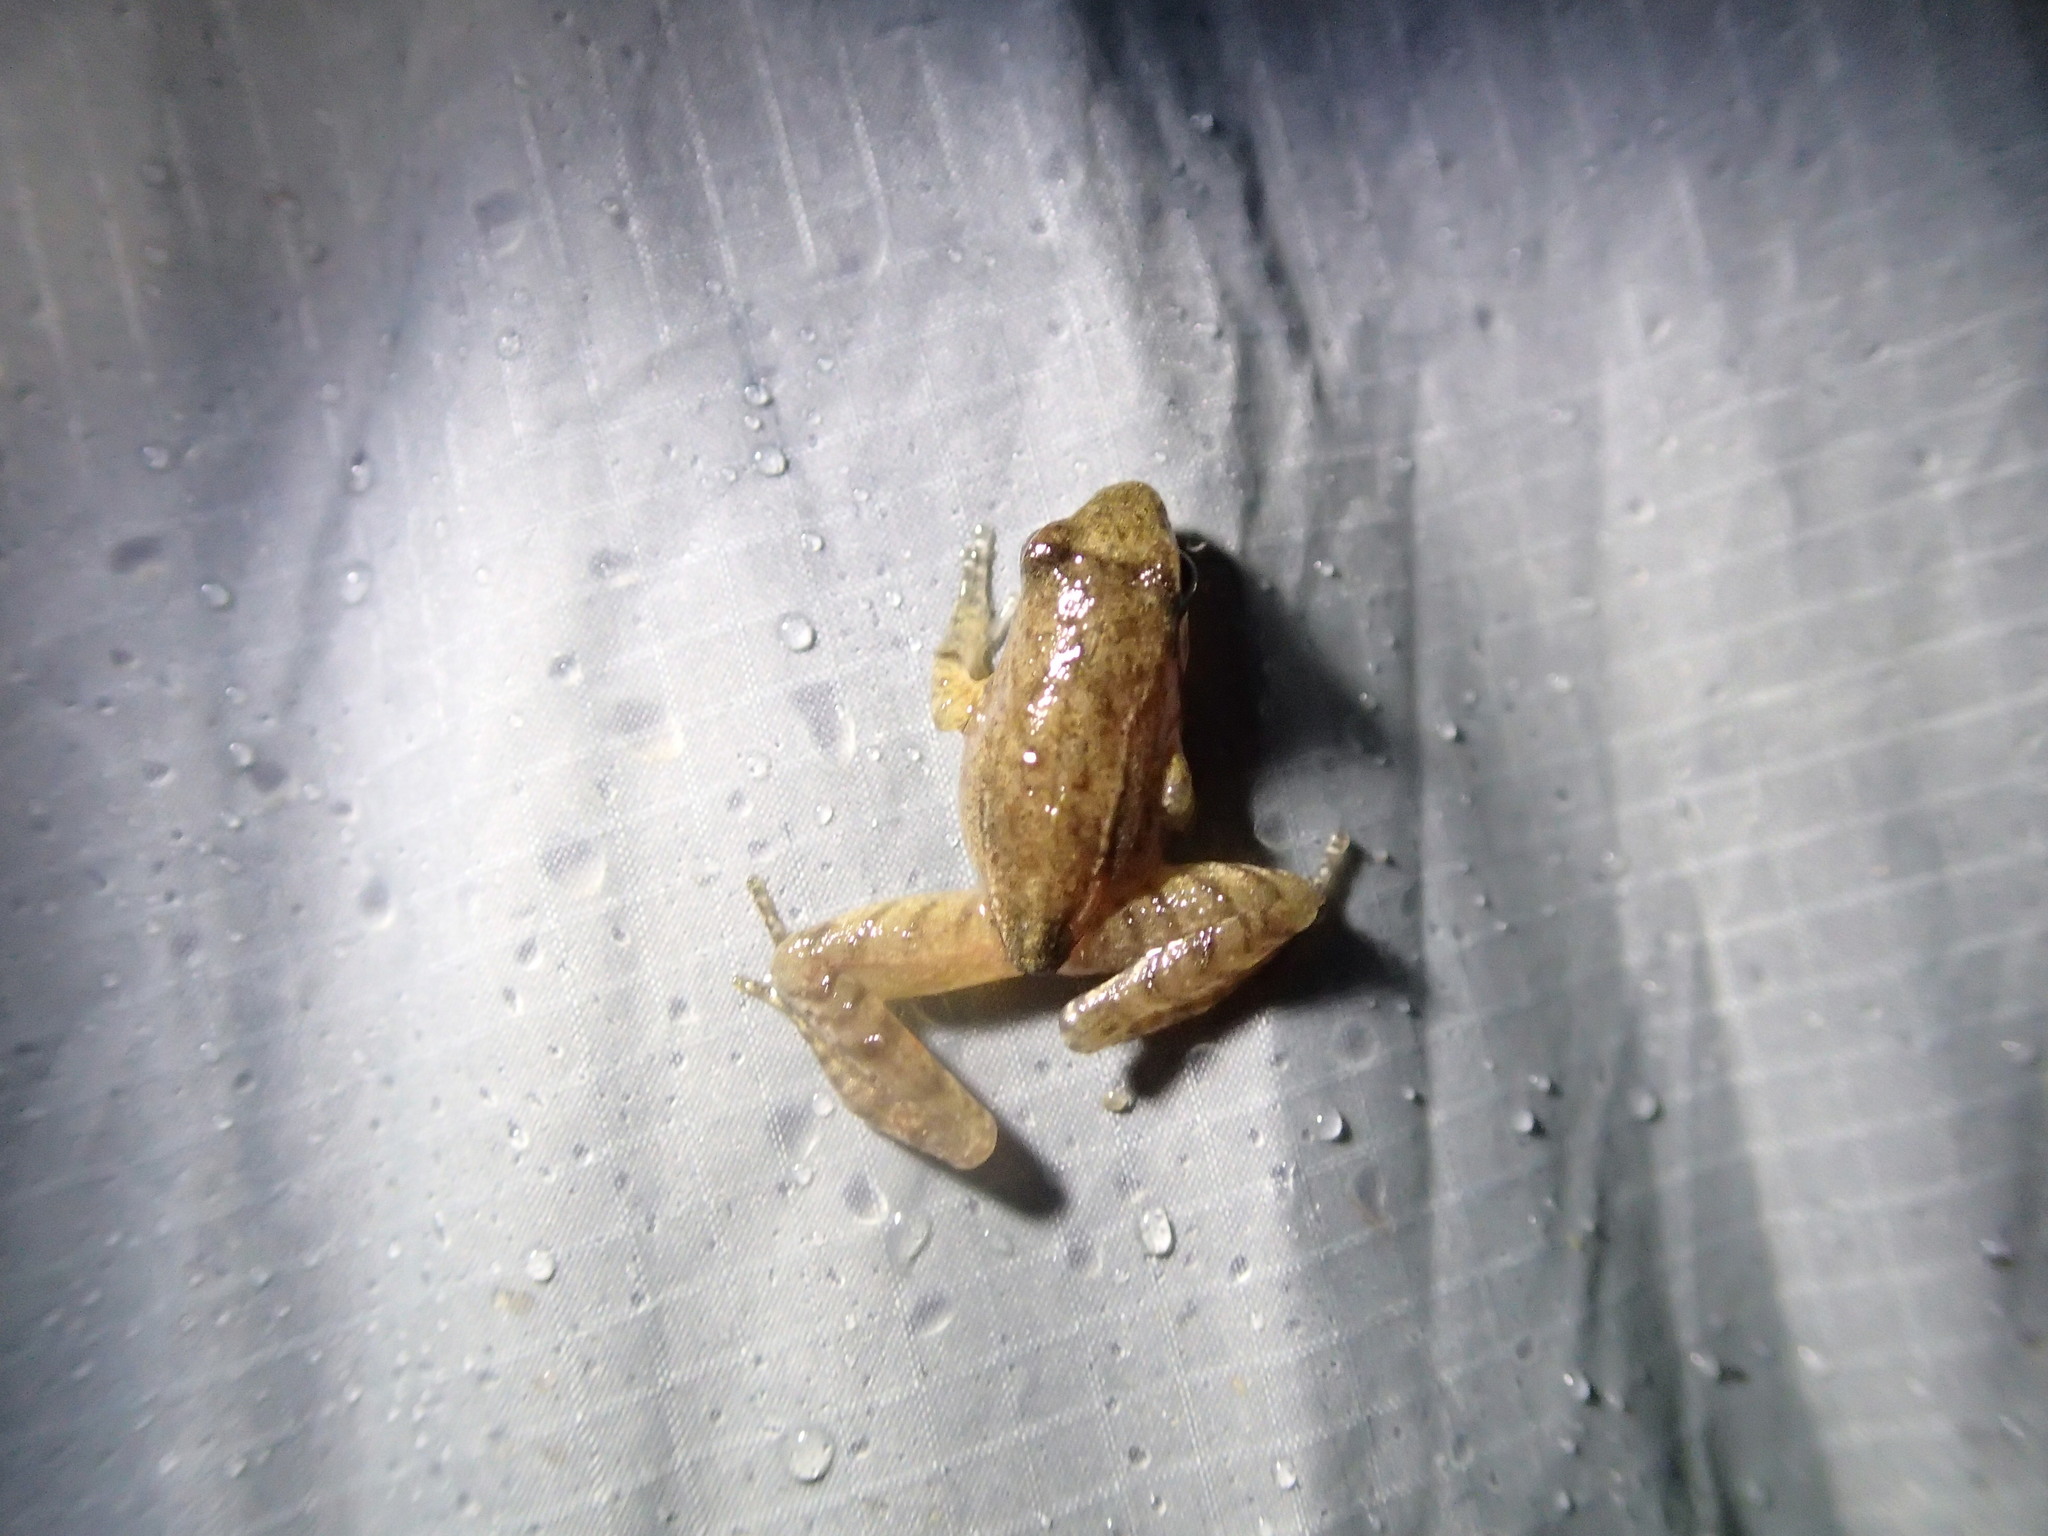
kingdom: Animalia
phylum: Chordata
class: Amphibia
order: Anura
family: Ranidae
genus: Rana
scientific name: Rana sauteri
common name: Kanshirei village frog
